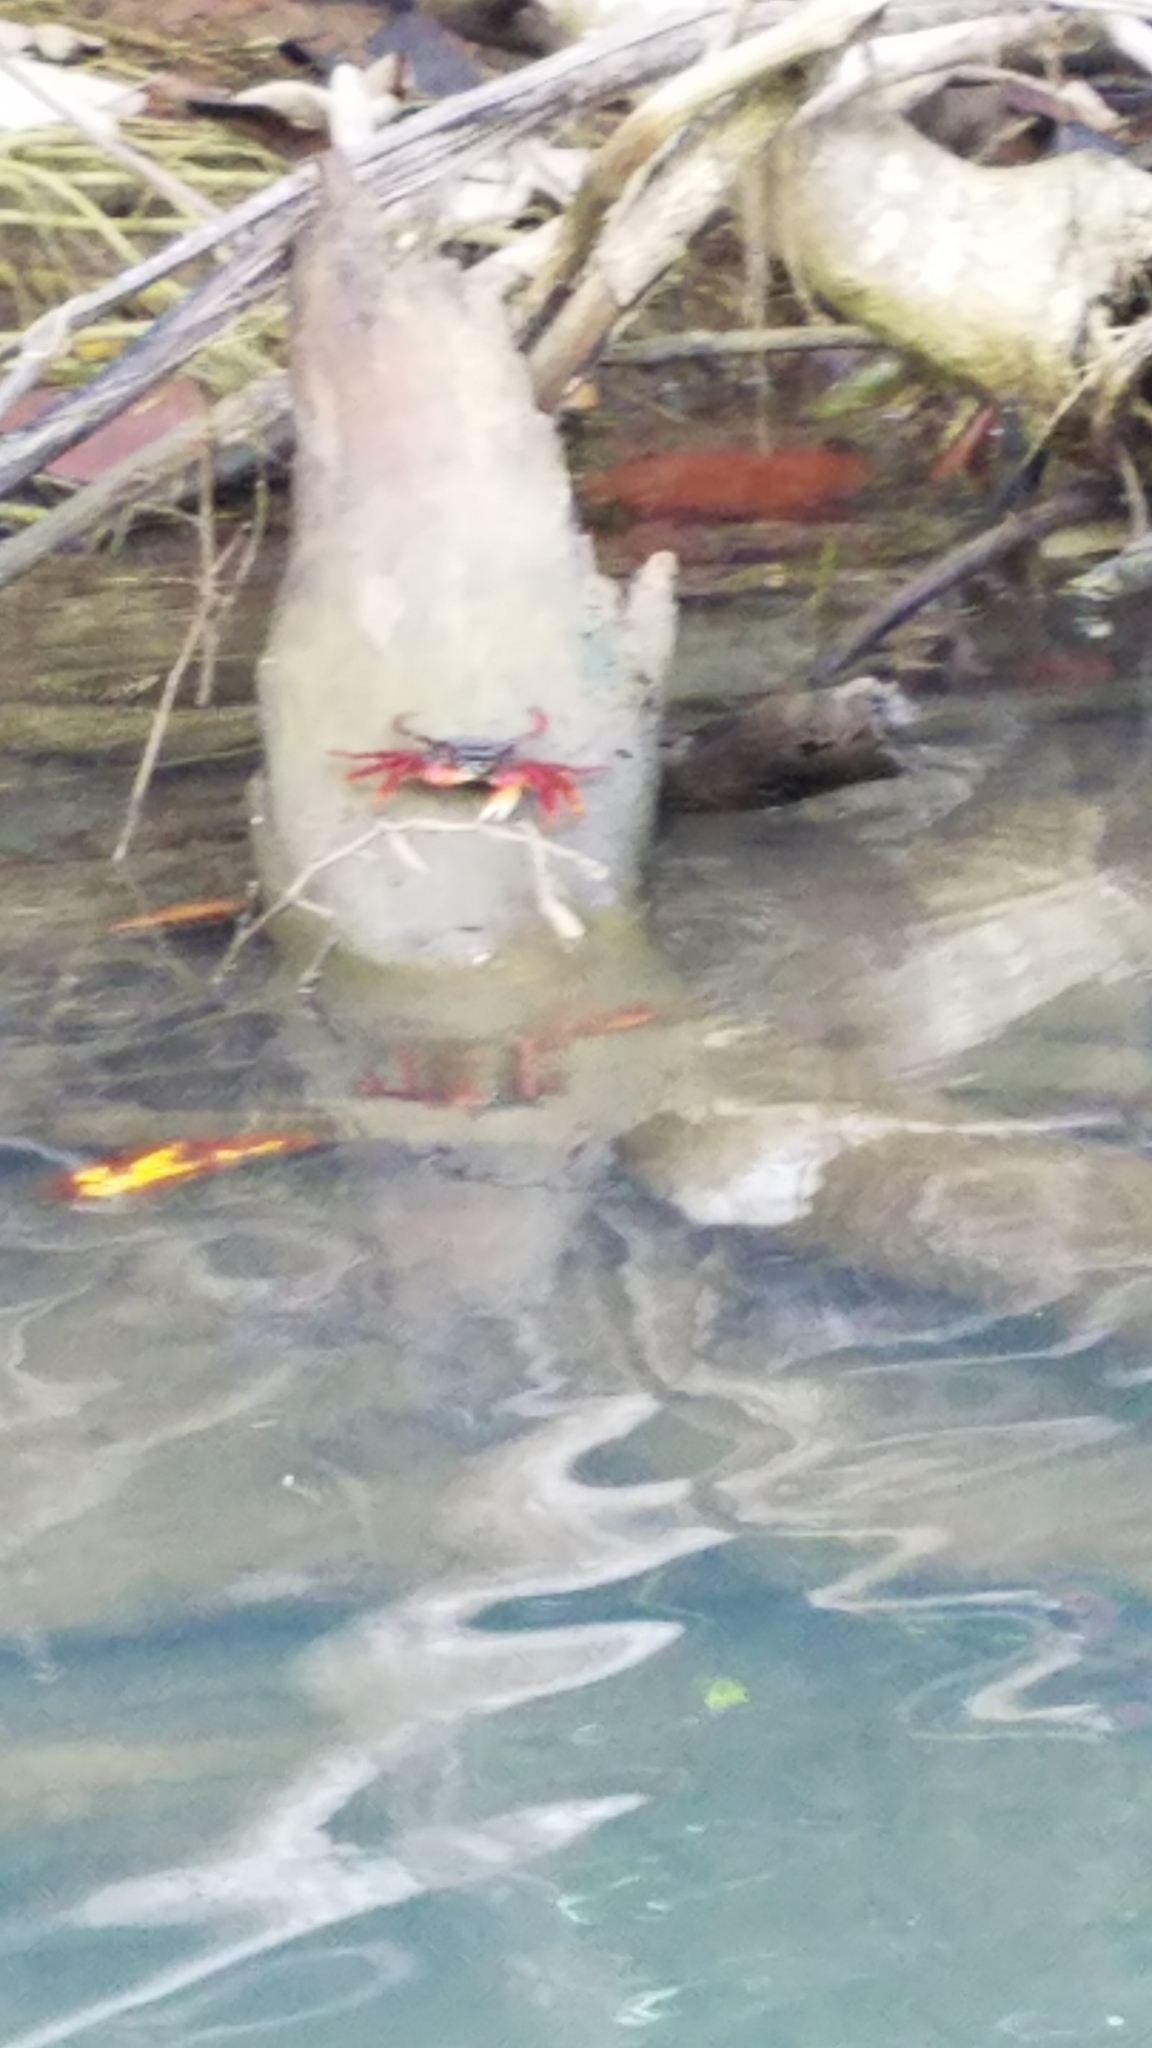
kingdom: Animalia
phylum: Arthropoda
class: Malacostraca
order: Decapoda
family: Grapsidae
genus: Goniopsis
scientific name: Goniopsis cruentata
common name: Mangrove crab
